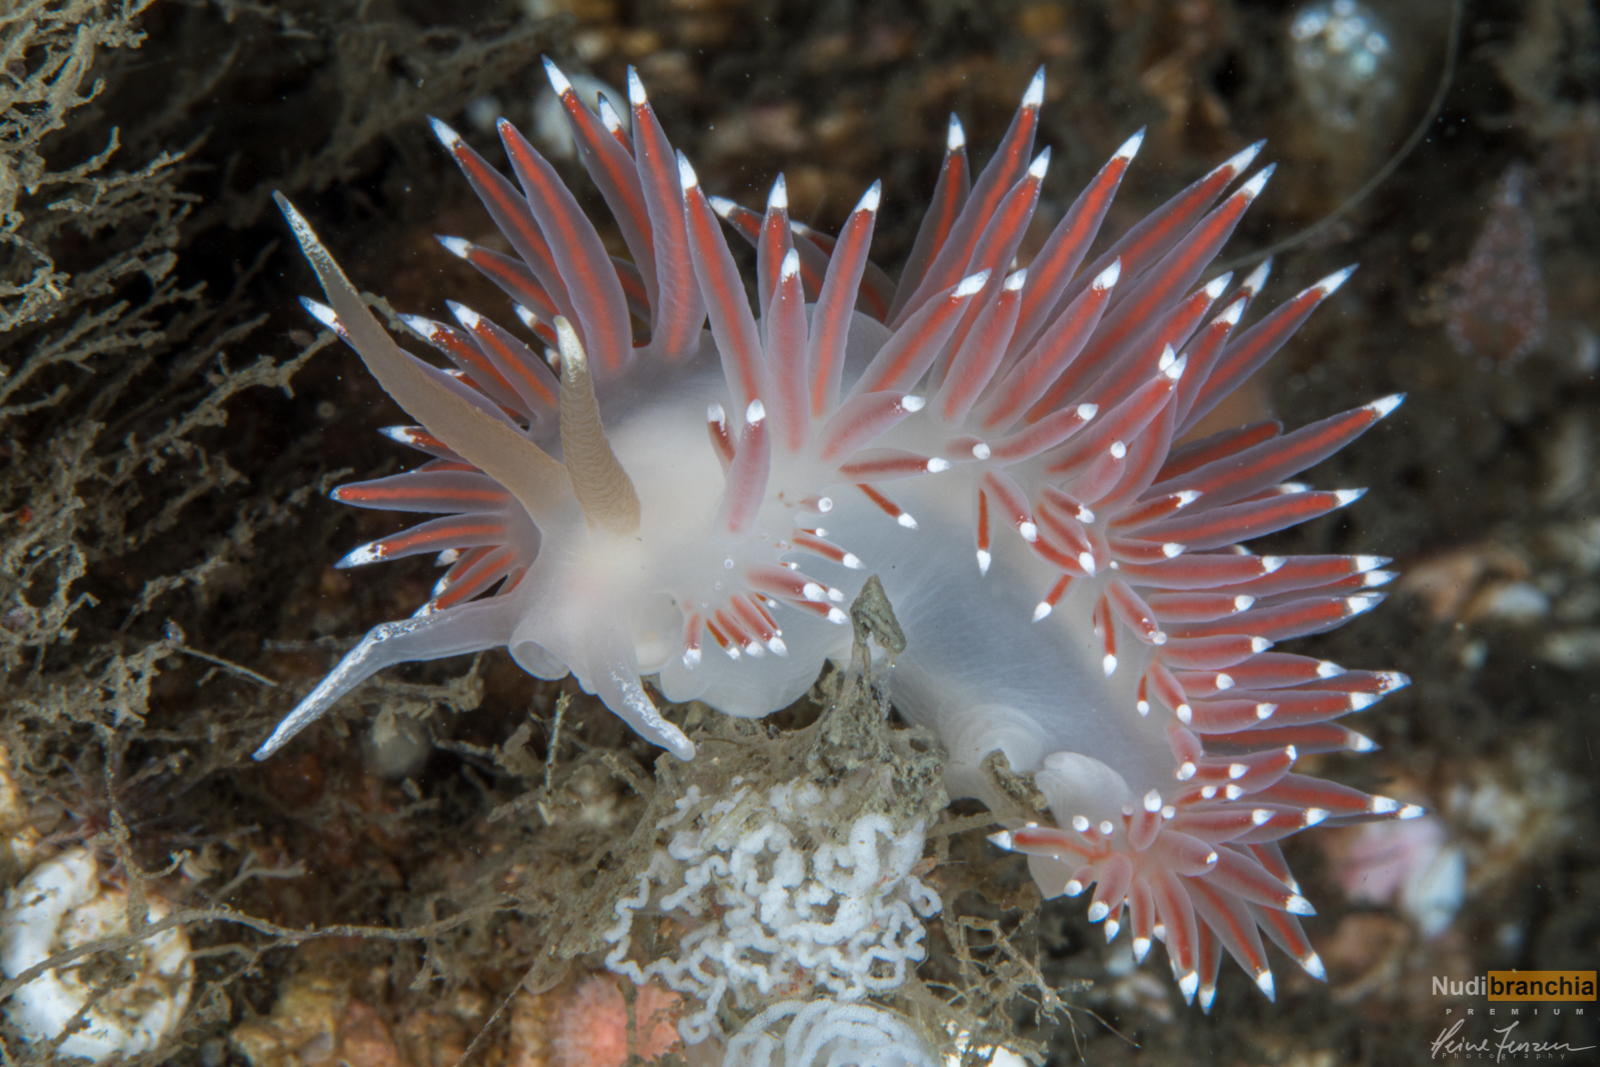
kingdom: Animalia
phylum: Mollusca
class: Gastropoda
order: Nudibranchia
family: Coryphellidae
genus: Coryphella
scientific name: Coryphella browni
